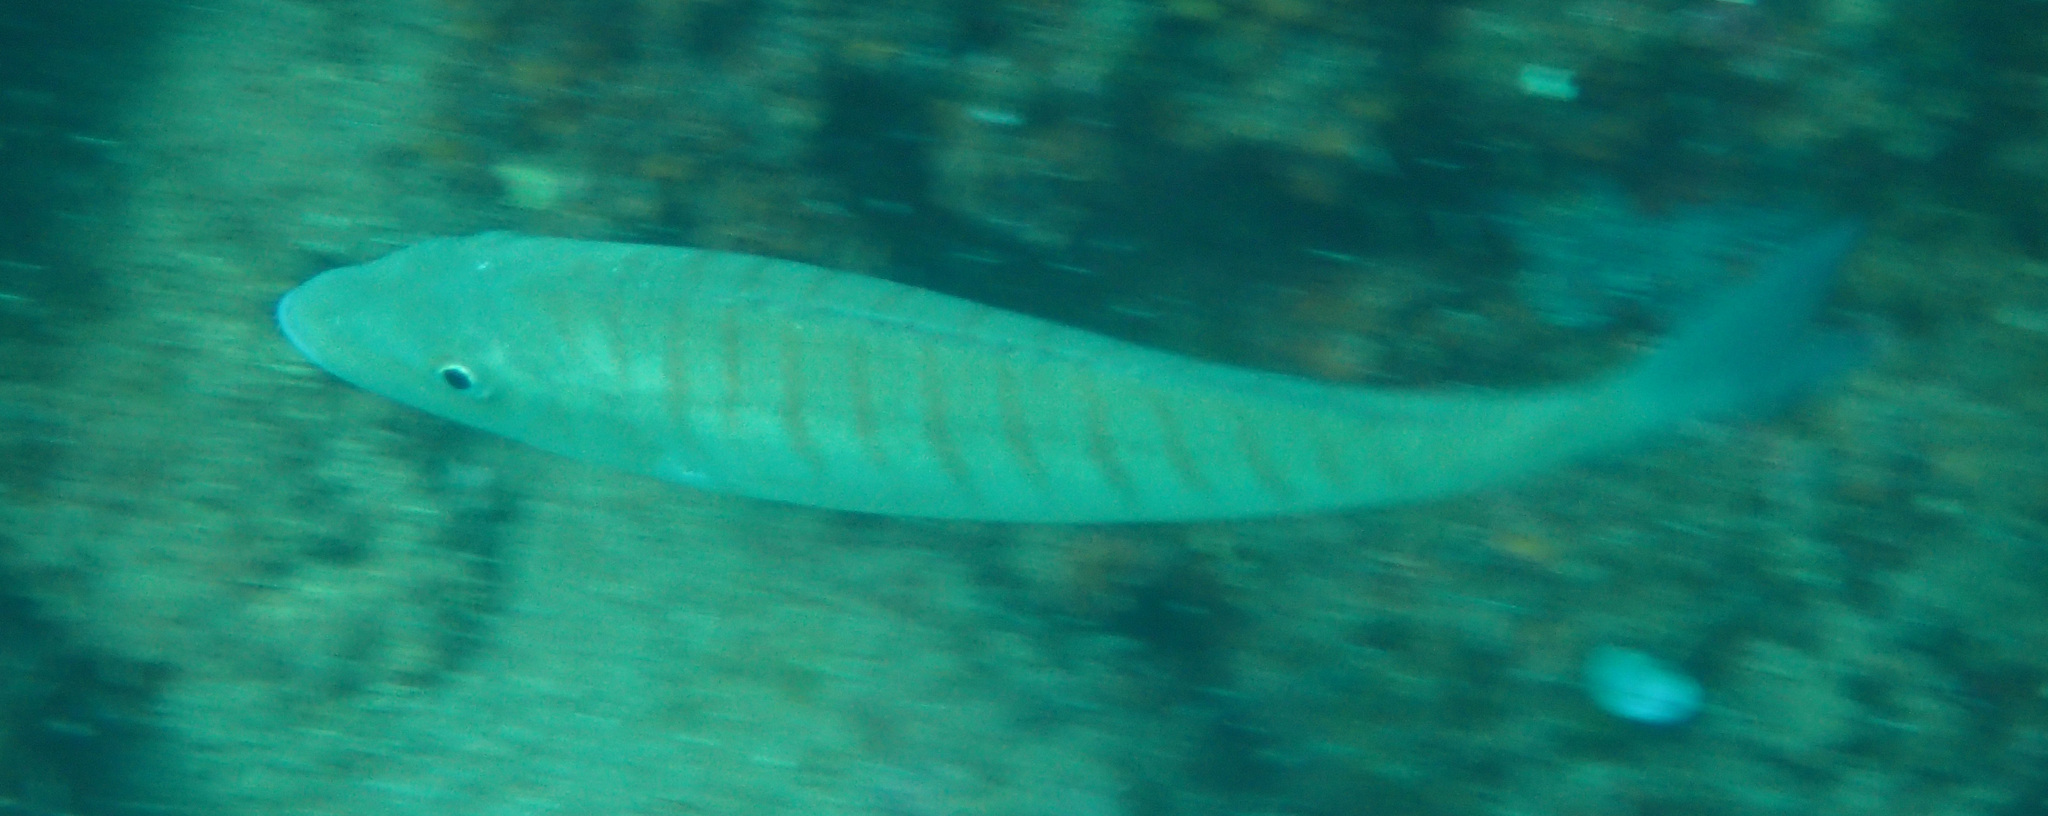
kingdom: Animalia
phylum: Chordata
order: Perciformes
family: Sparidae
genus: Lithognathus
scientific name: Lithognathus mormyrus
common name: Sand steenbras
